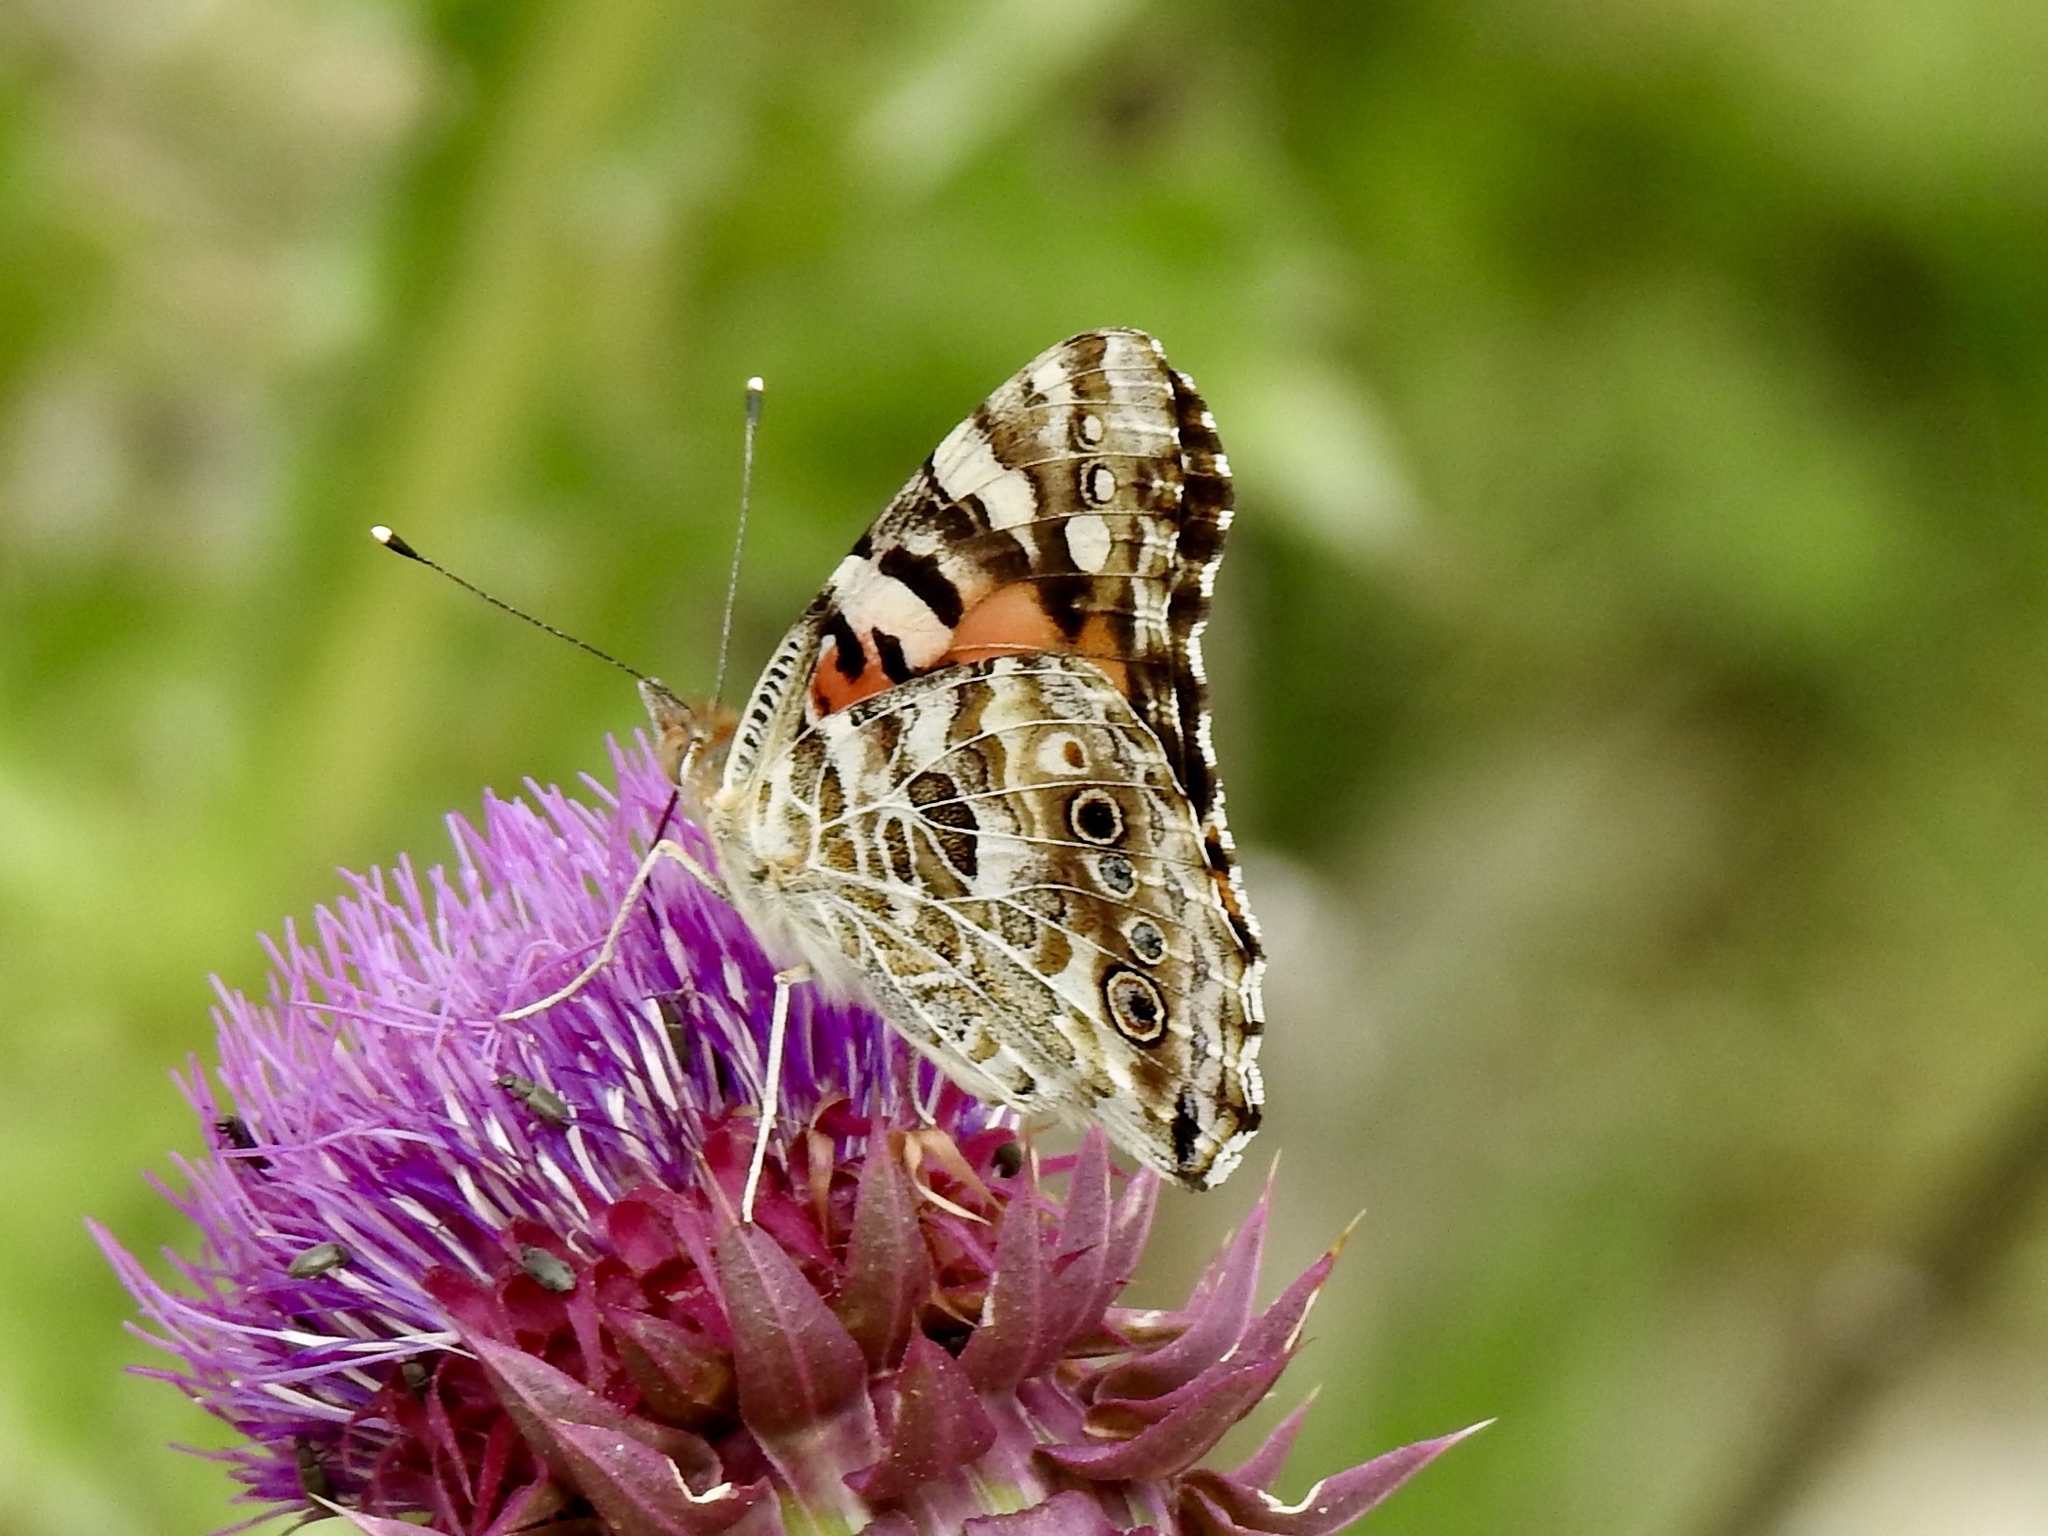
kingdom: Animalia
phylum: Arthropoda
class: Insecta
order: Lepidoptera
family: Nymphalidae
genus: Vanessa
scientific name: Vanessa cardui
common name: Painted lady
